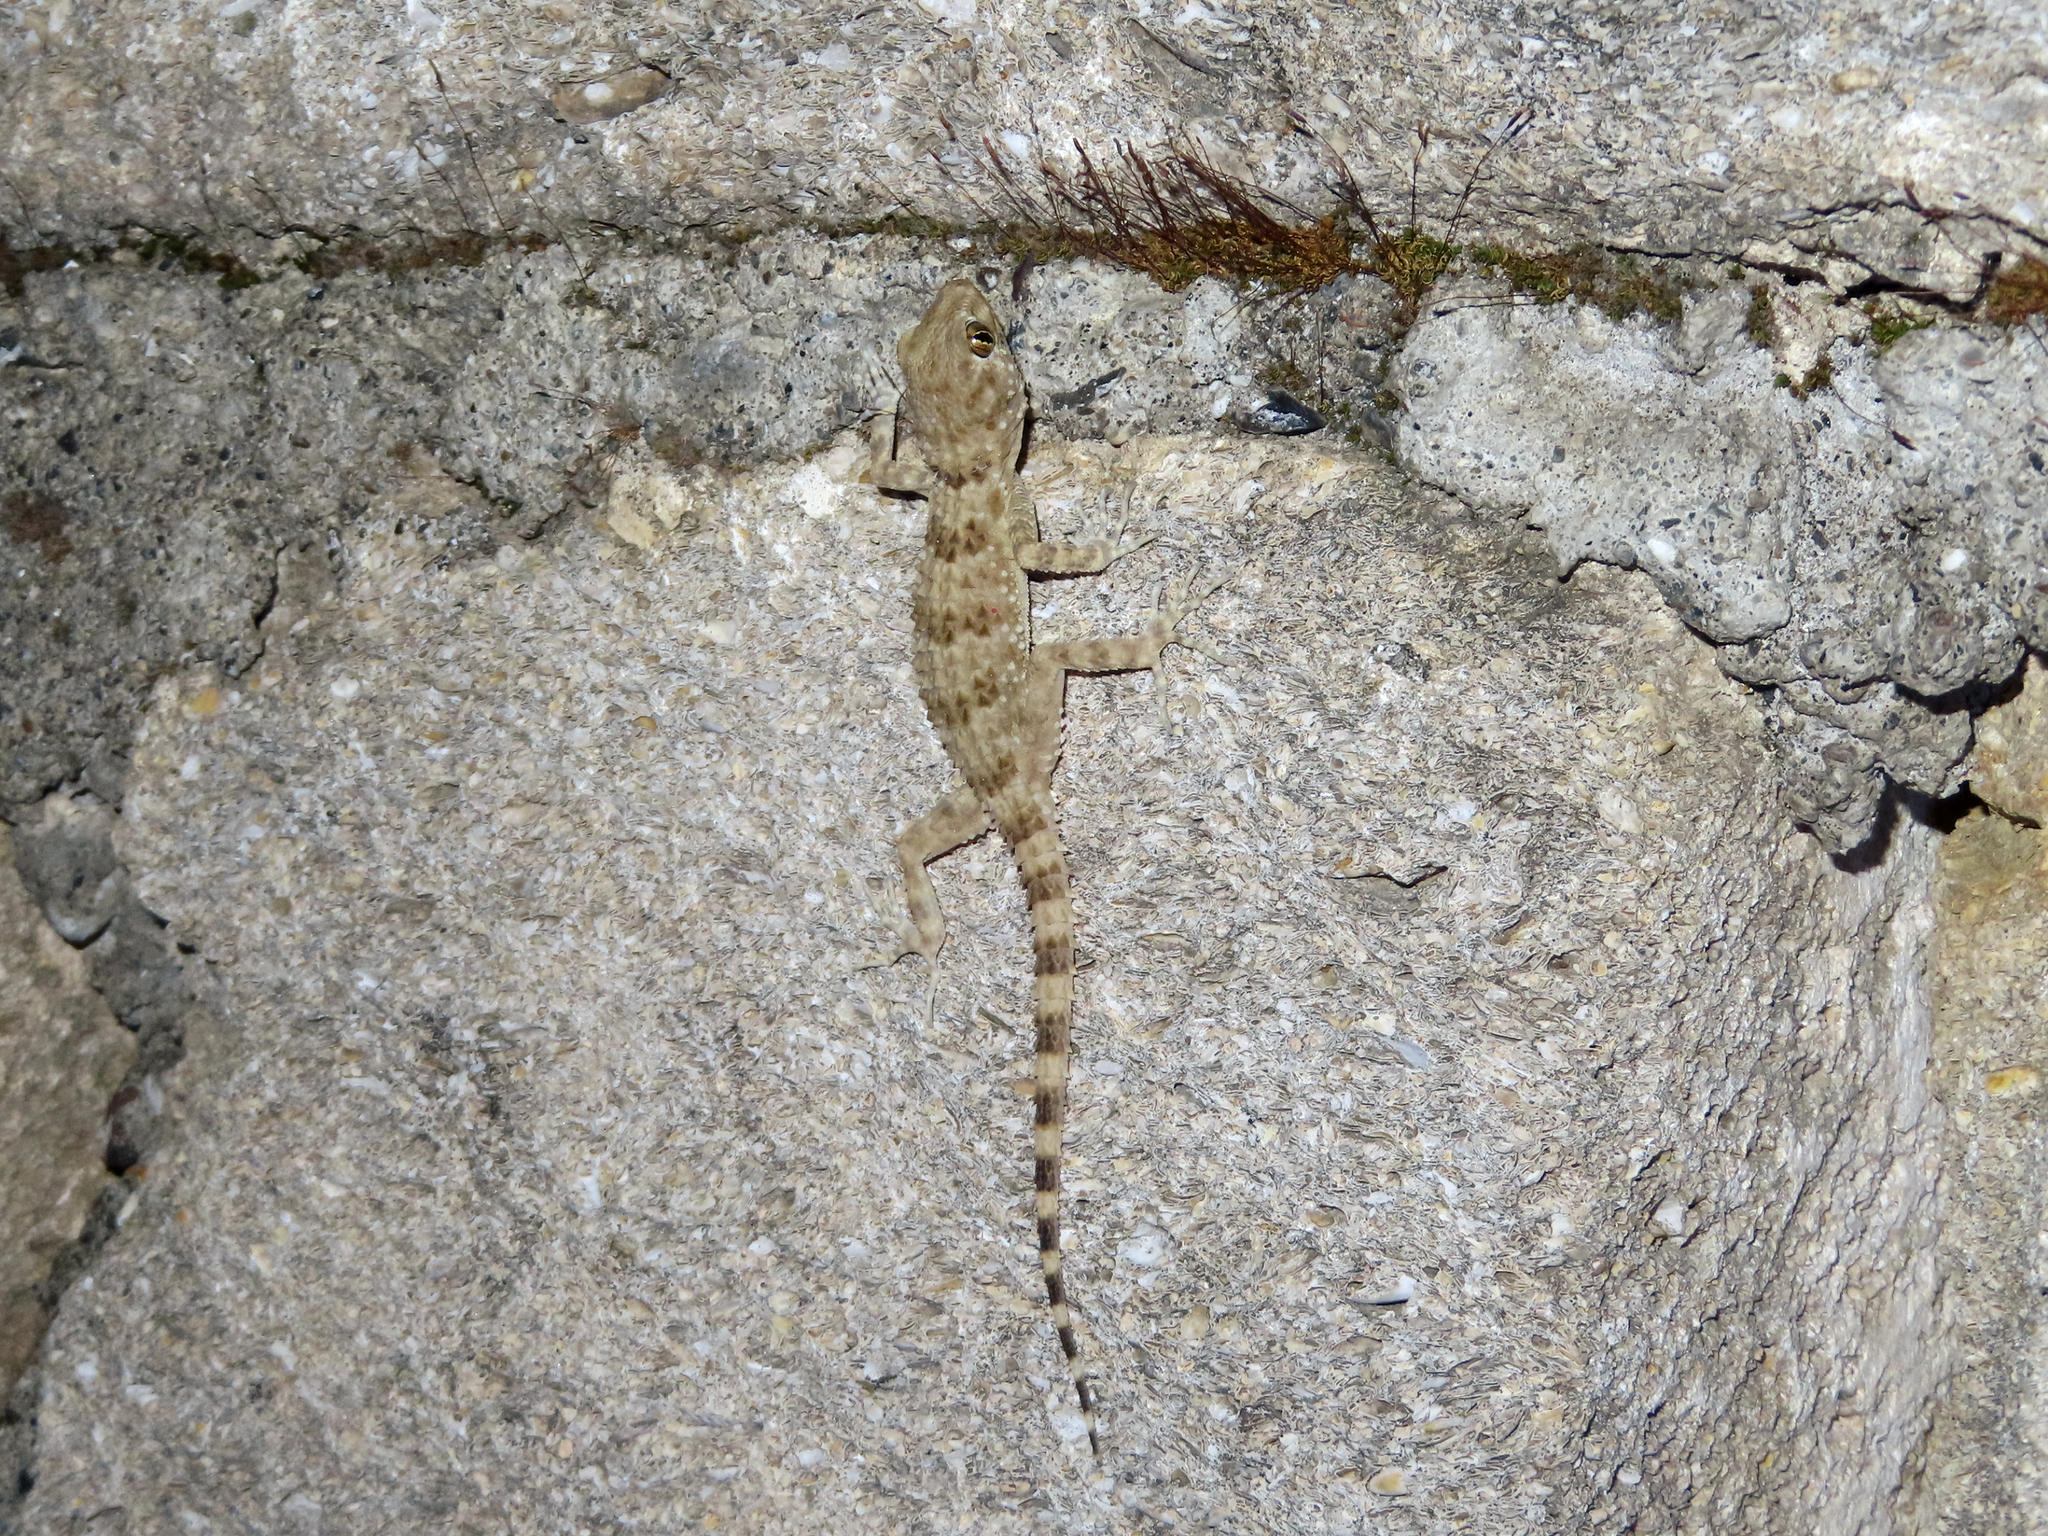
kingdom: Animalia
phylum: Chordata
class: Squamata
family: Gekkonidae
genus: Tenuidactylus
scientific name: Tenuidactylus caspius
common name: Caspian bent-toed gecko
